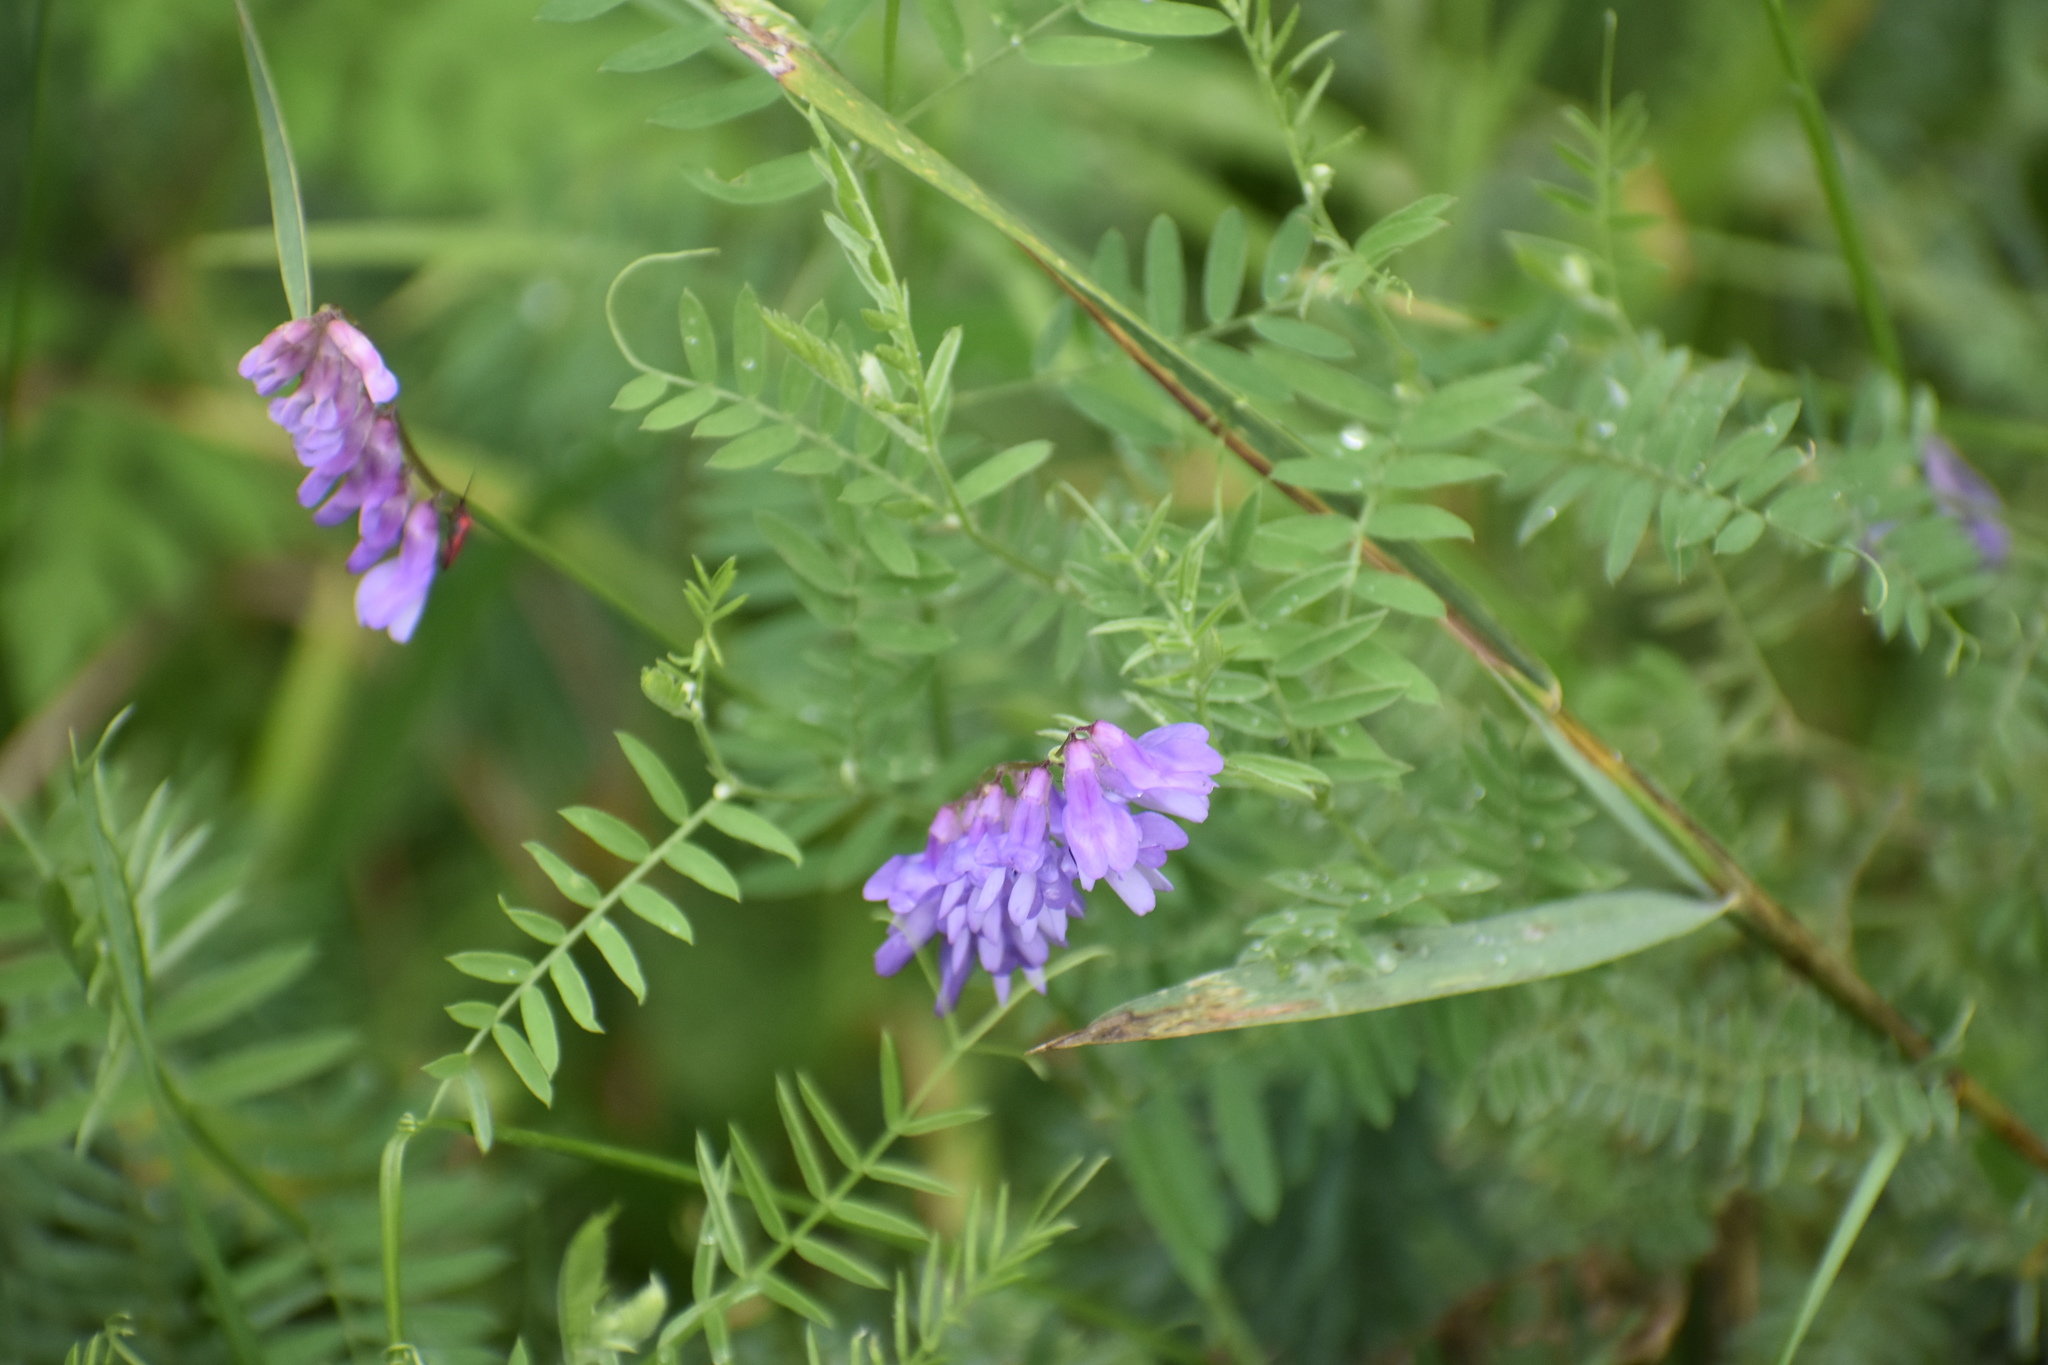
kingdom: Plantae
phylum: Tracheophyta
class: Magnoliopsida
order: Fabales
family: Fabaceae
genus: Vicia
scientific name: Vicia cracca
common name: Bird vetch
